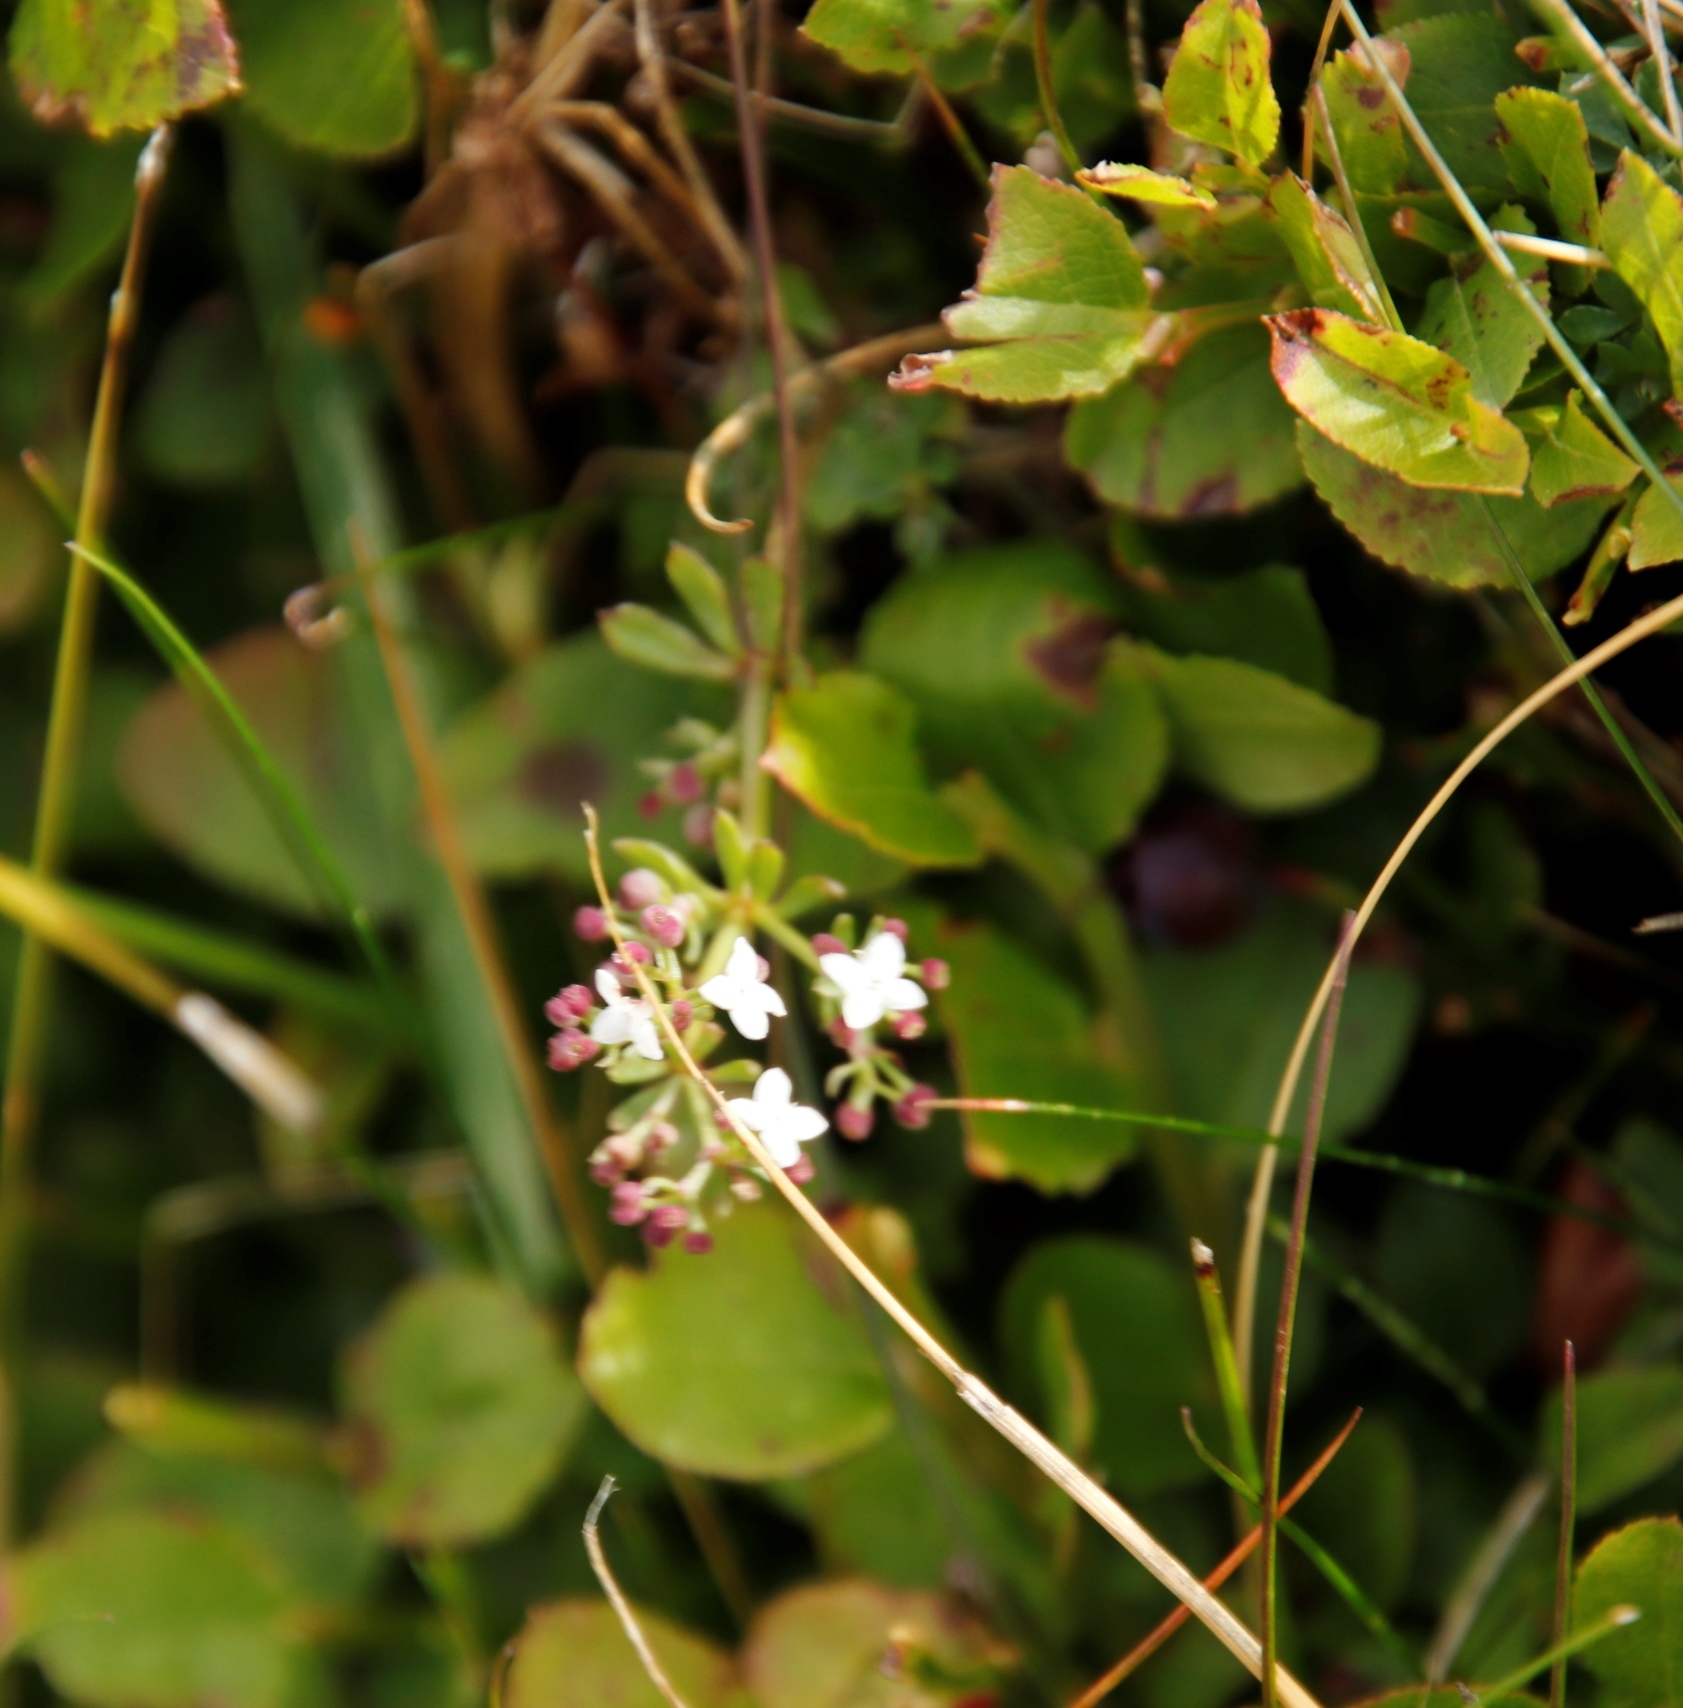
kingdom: Plantae
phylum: Tracheophyta
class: Magnoliopsida
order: Ericales
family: Ericaceae
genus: Vaccinium
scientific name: Vaccinium myrtillus
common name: Bilberry
